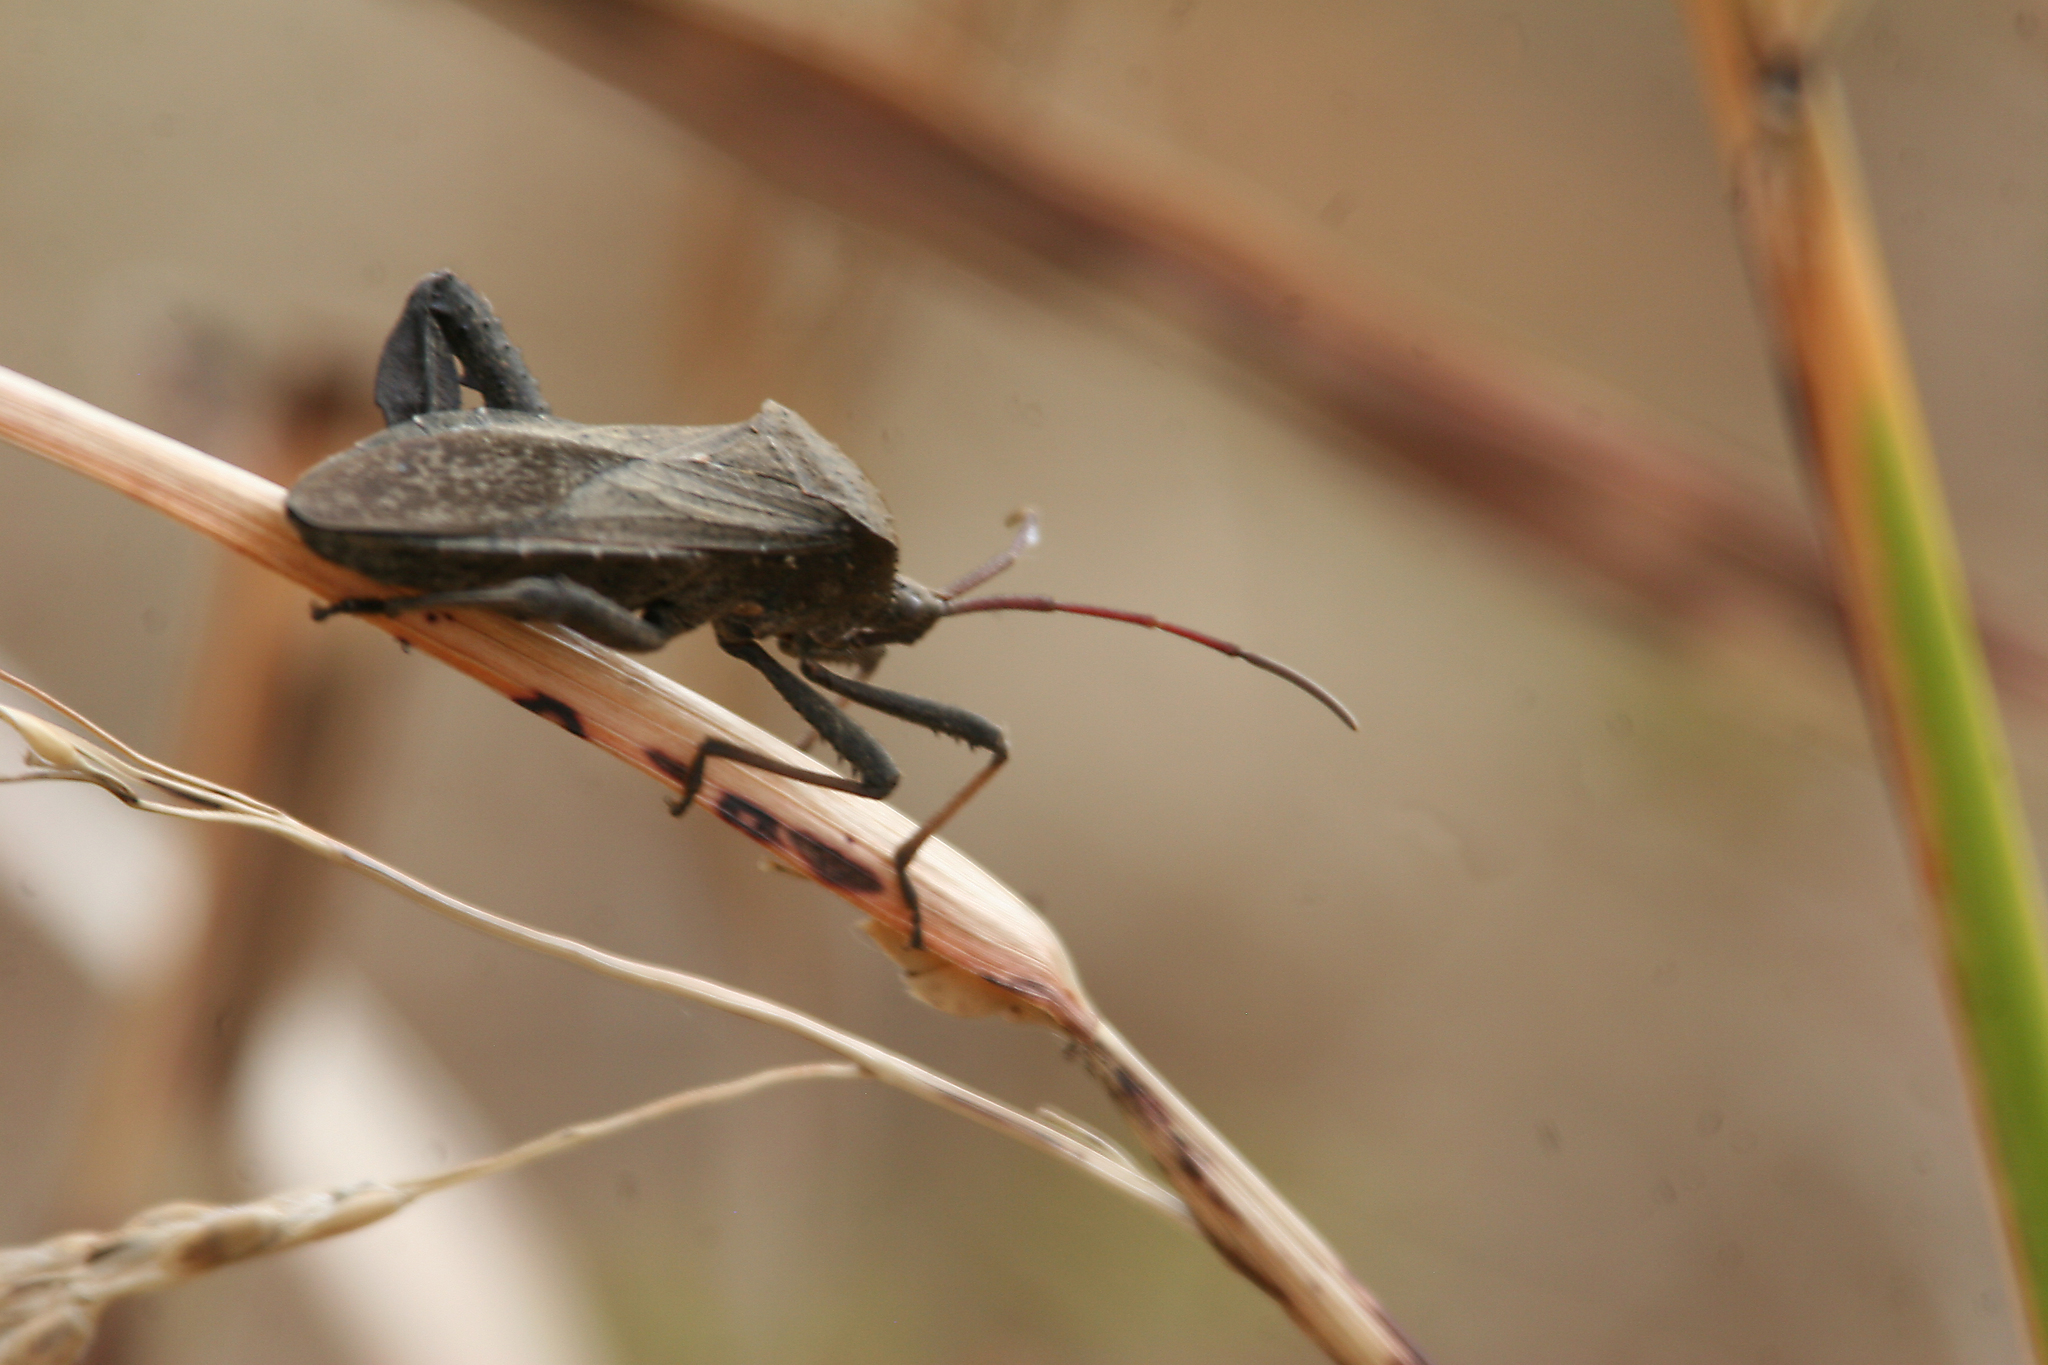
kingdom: Animalia
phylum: Arthropoda
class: Insecta
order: Hemiptera
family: Coreidae
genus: Acanthocephala
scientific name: Acanthocephala femorata
